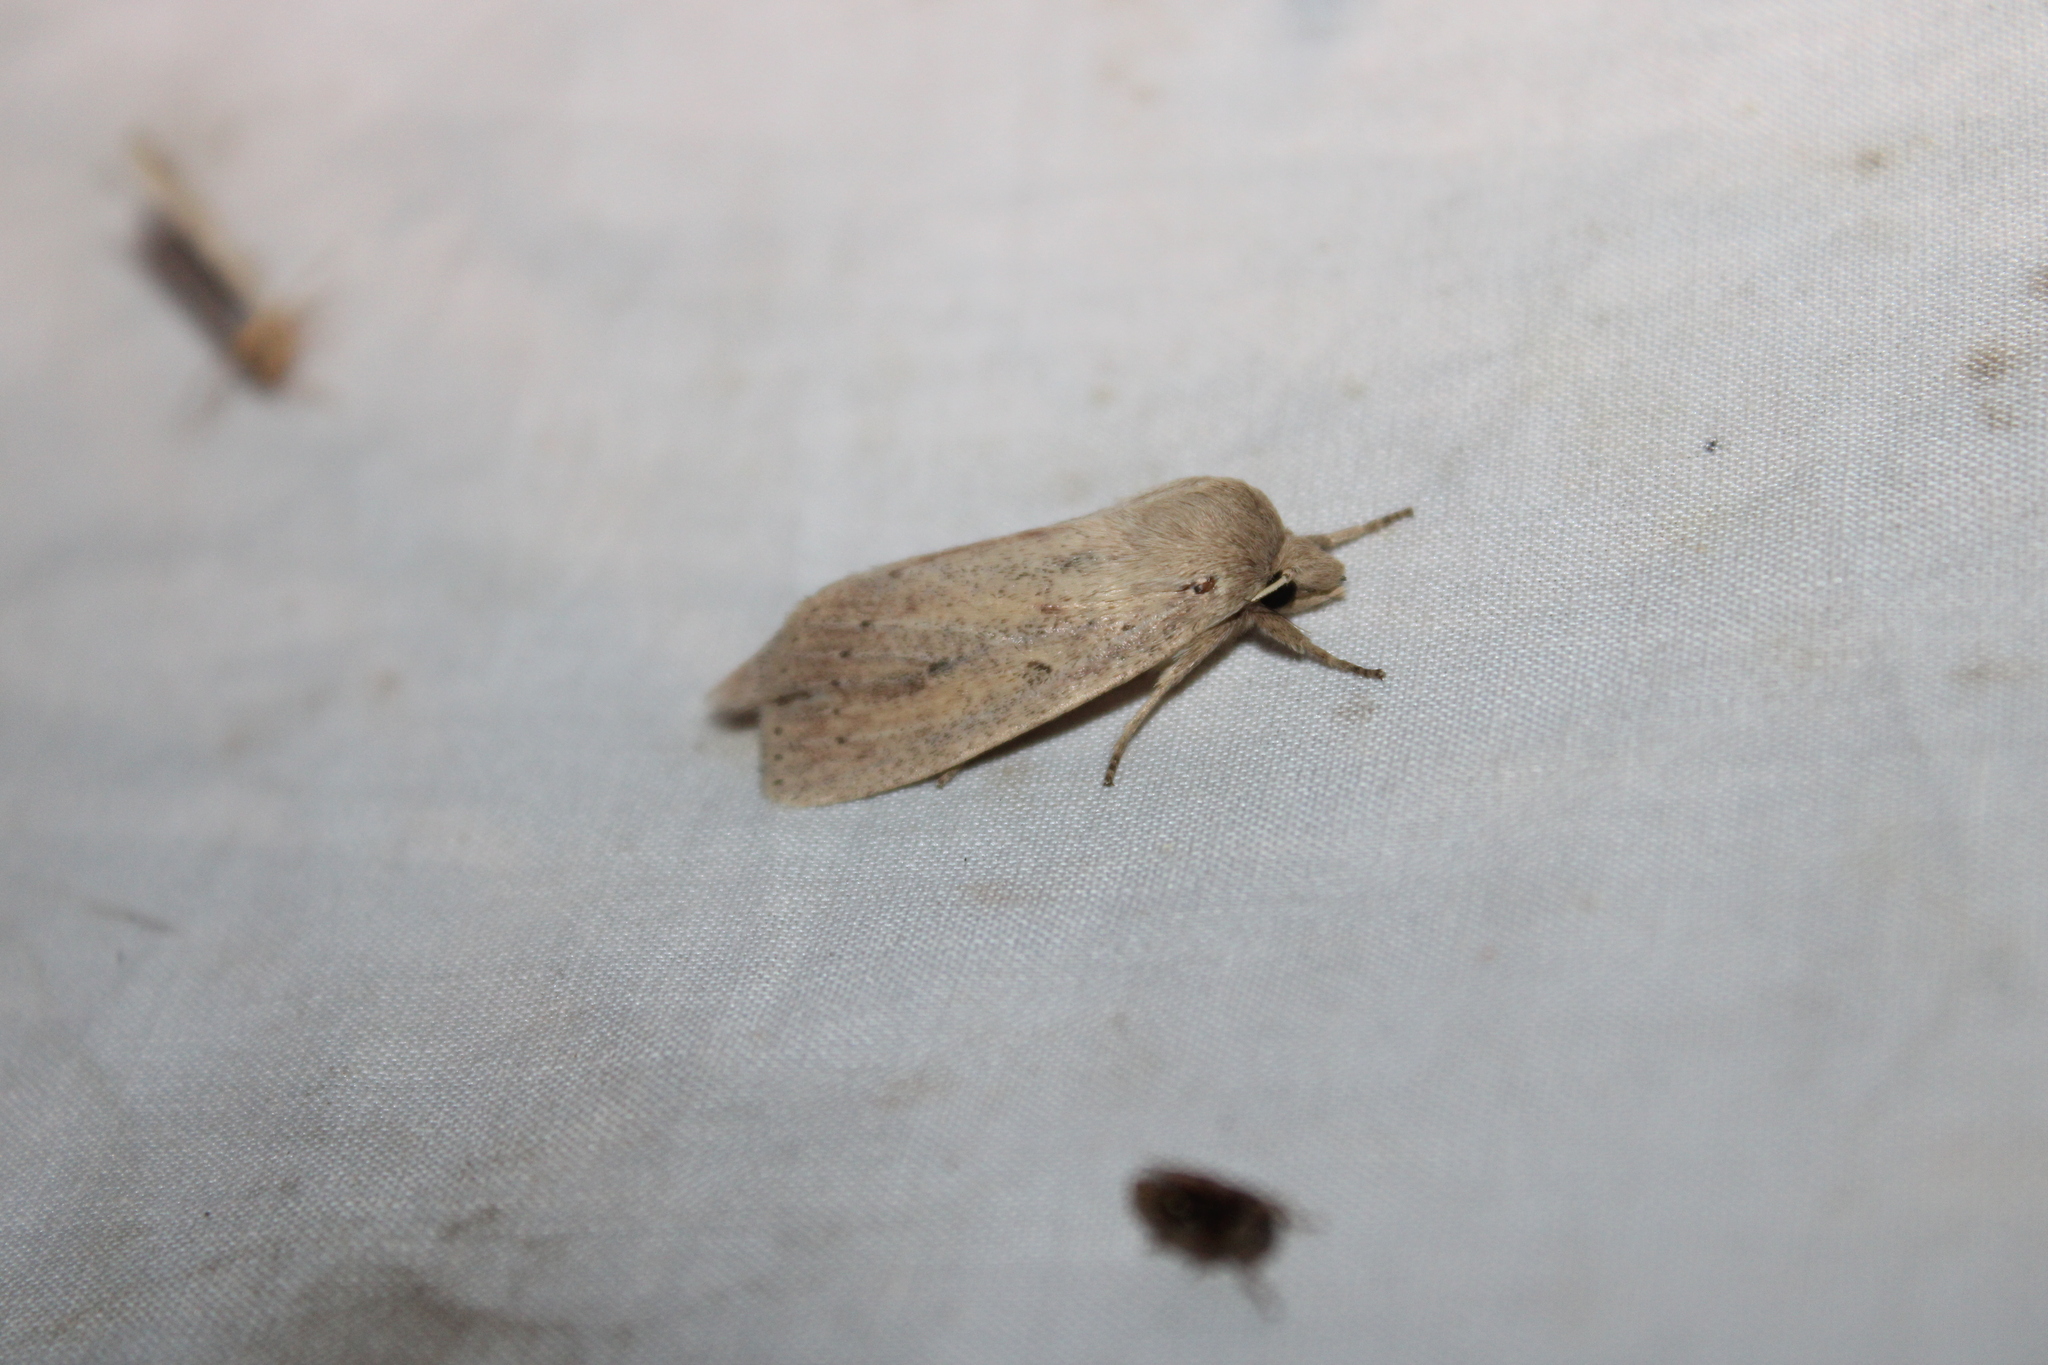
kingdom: Animalia
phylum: Arthropoda
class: Insecta
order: Lepidoptera
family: Noctuidae
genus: Globia
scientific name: Globia oblonga
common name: Oblong sedge borer moth
